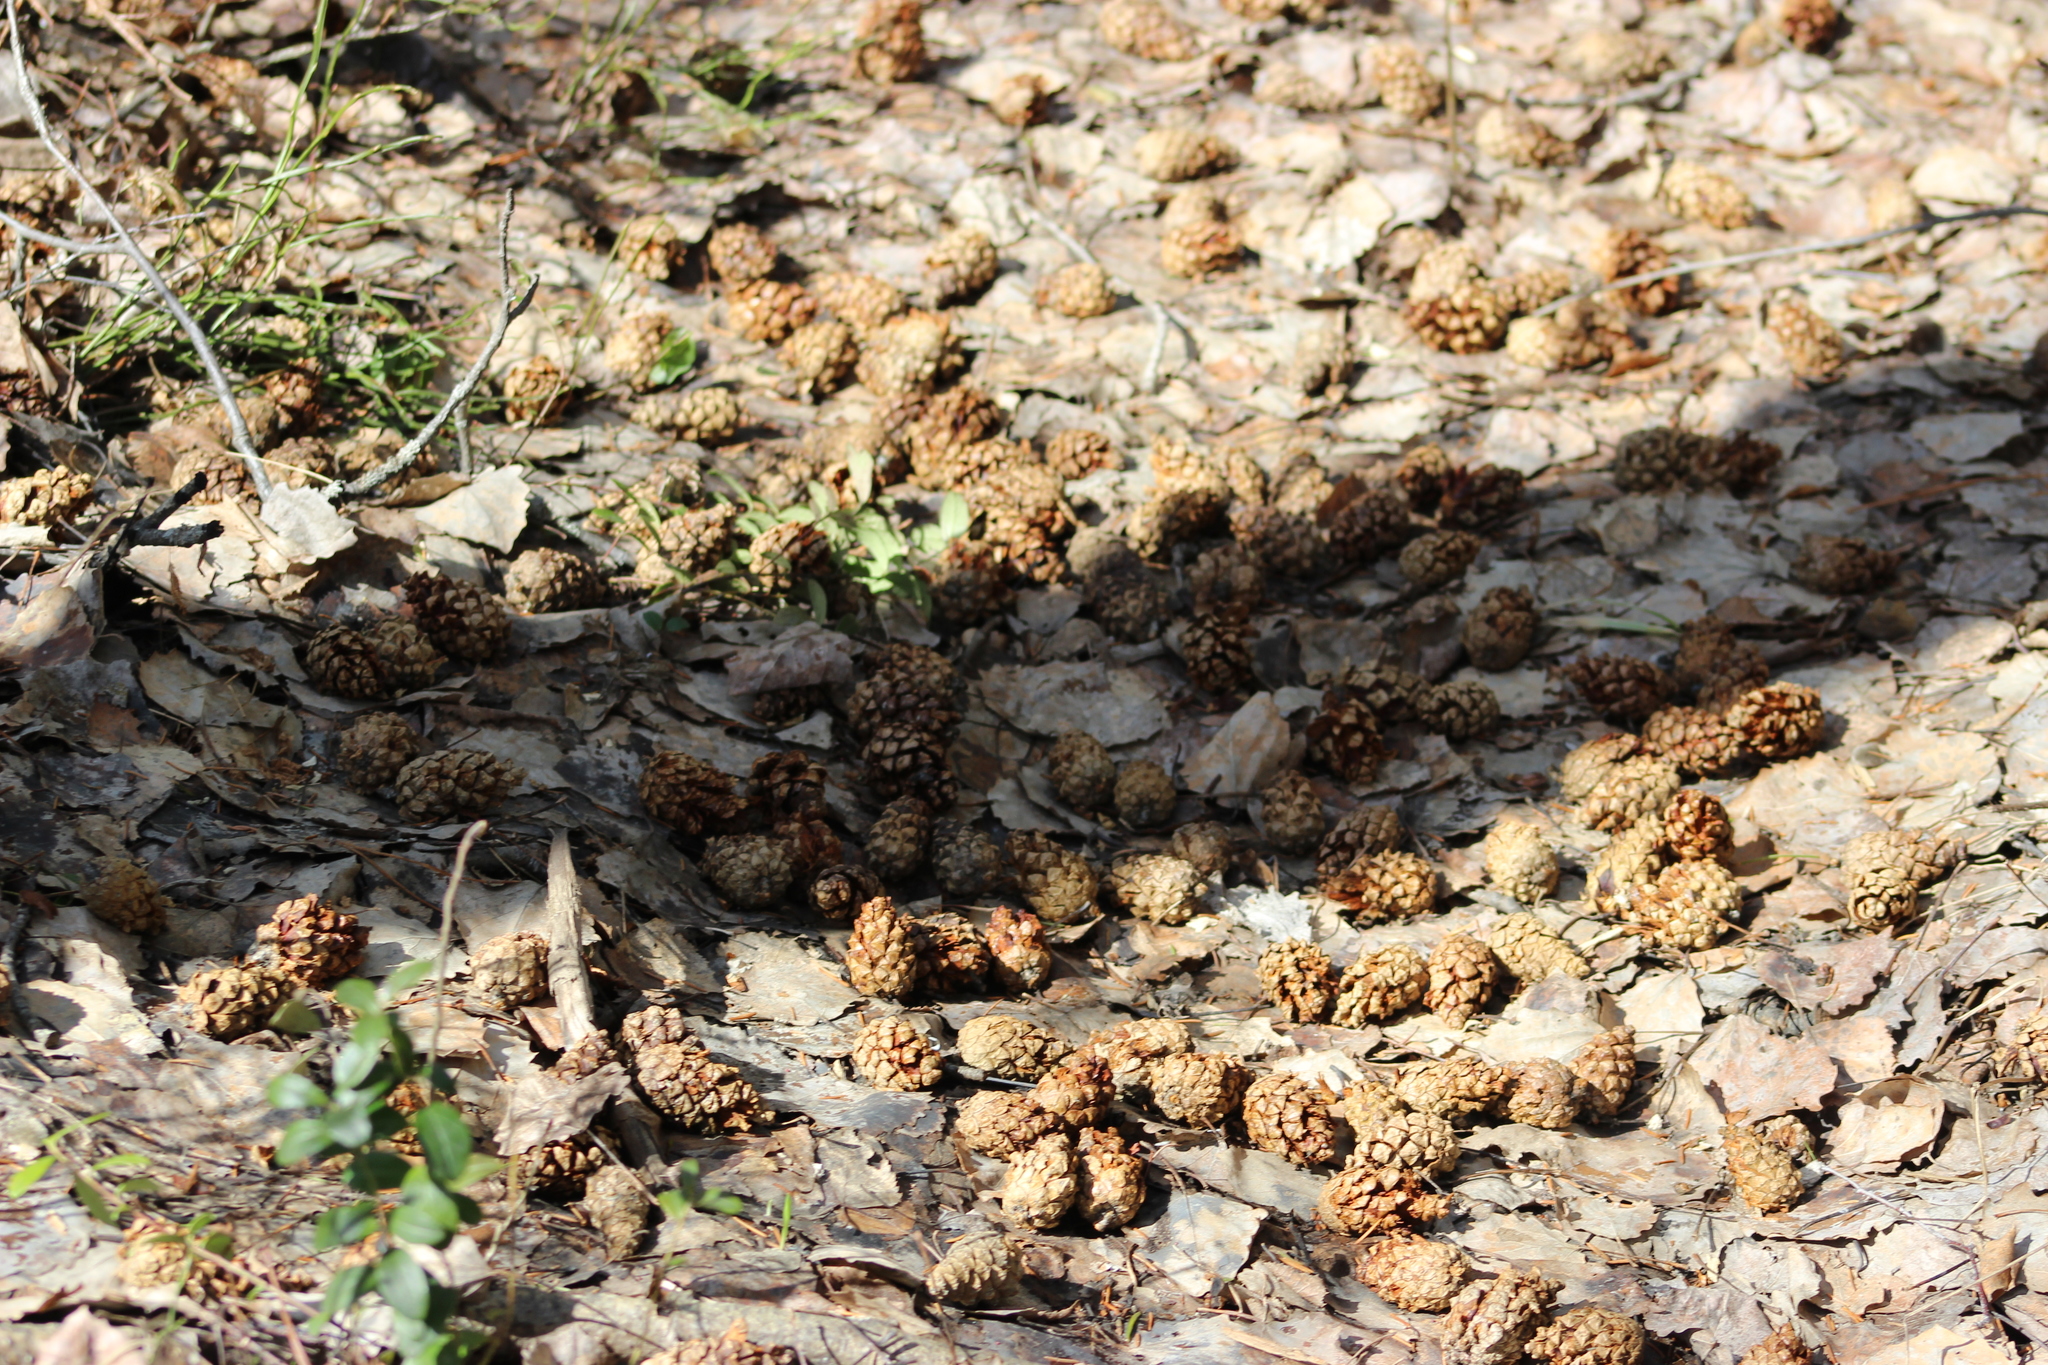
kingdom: Plantae
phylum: Tracheophyta
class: Pinopsida
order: Pinales
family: Pinaceae
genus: Pinus
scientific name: Pinus sylvestris
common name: Scots pine
